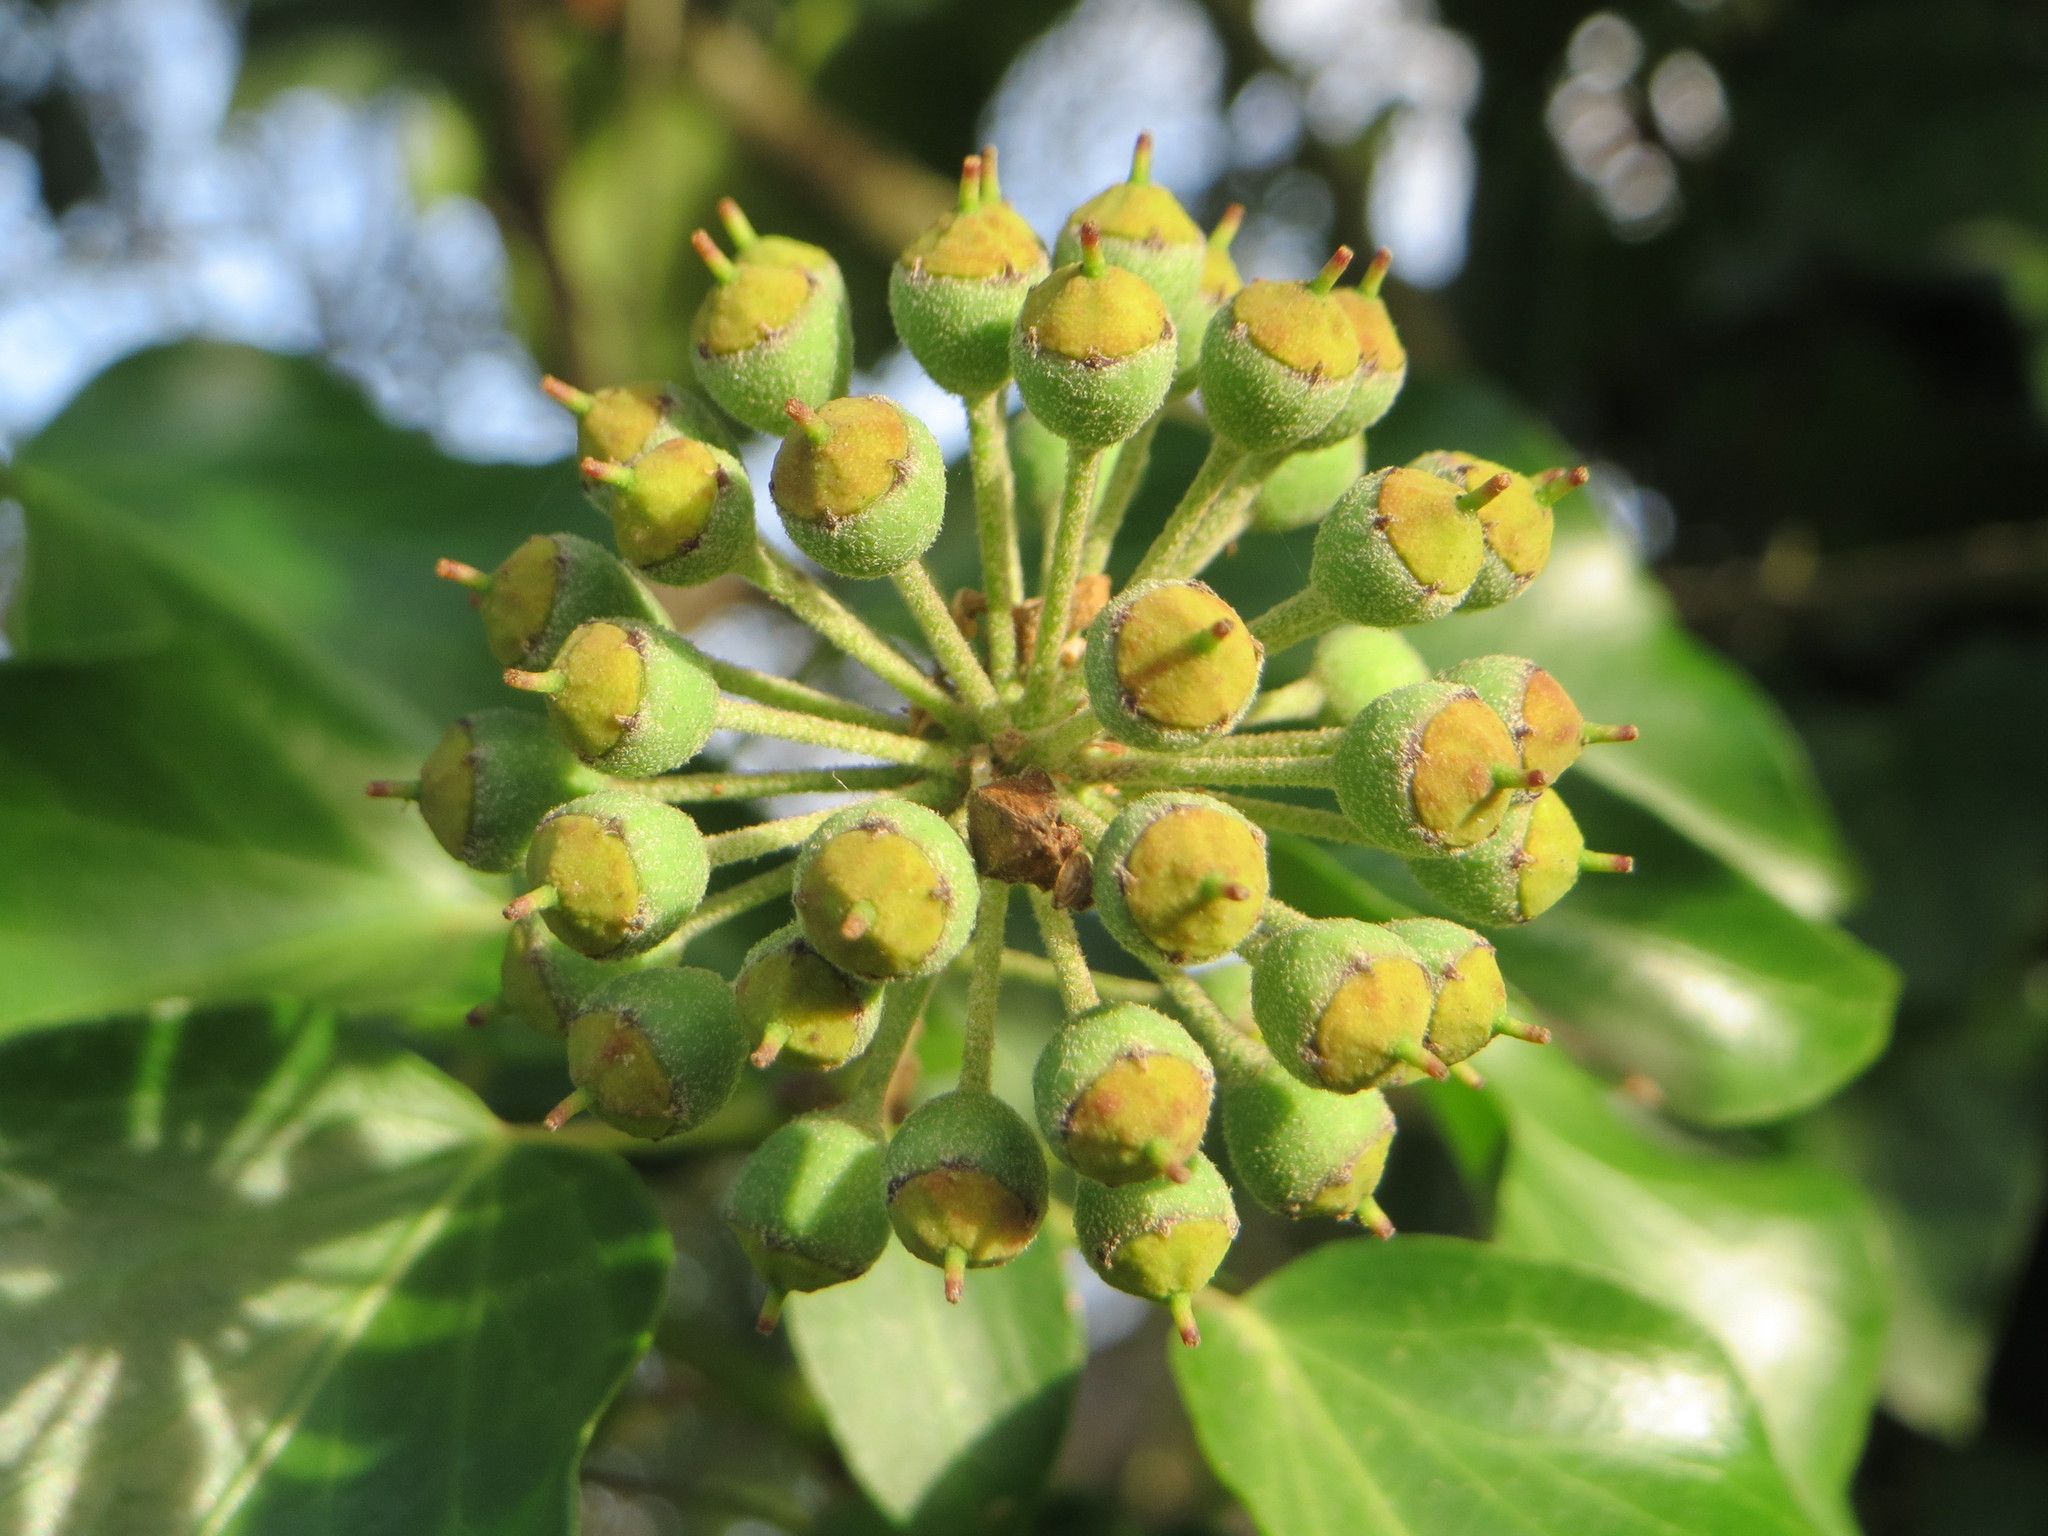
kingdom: Plantae
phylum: Tracheophyta
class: Magnoliopsida
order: Apiales
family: Araliaceae
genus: Hedera
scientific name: Hedera helix
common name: Ivy
